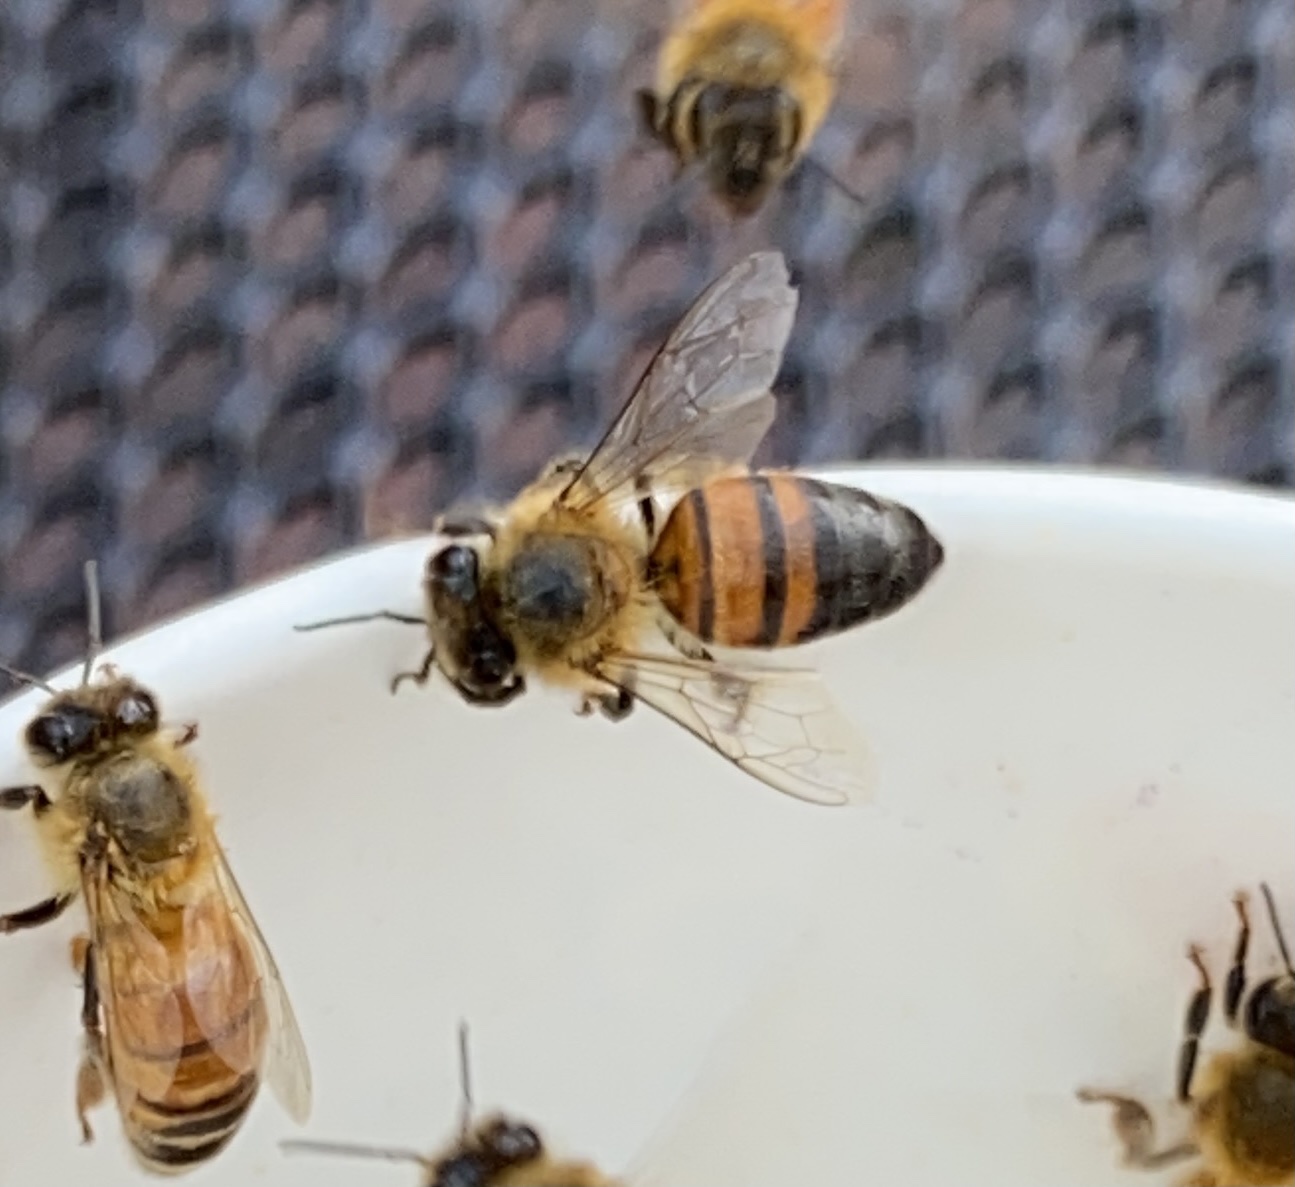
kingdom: Animalia
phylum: Arthropoda
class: Insecta
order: Hymenoptera
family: Apidae
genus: Apis
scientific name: Apis mellifera
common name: Honey bee
